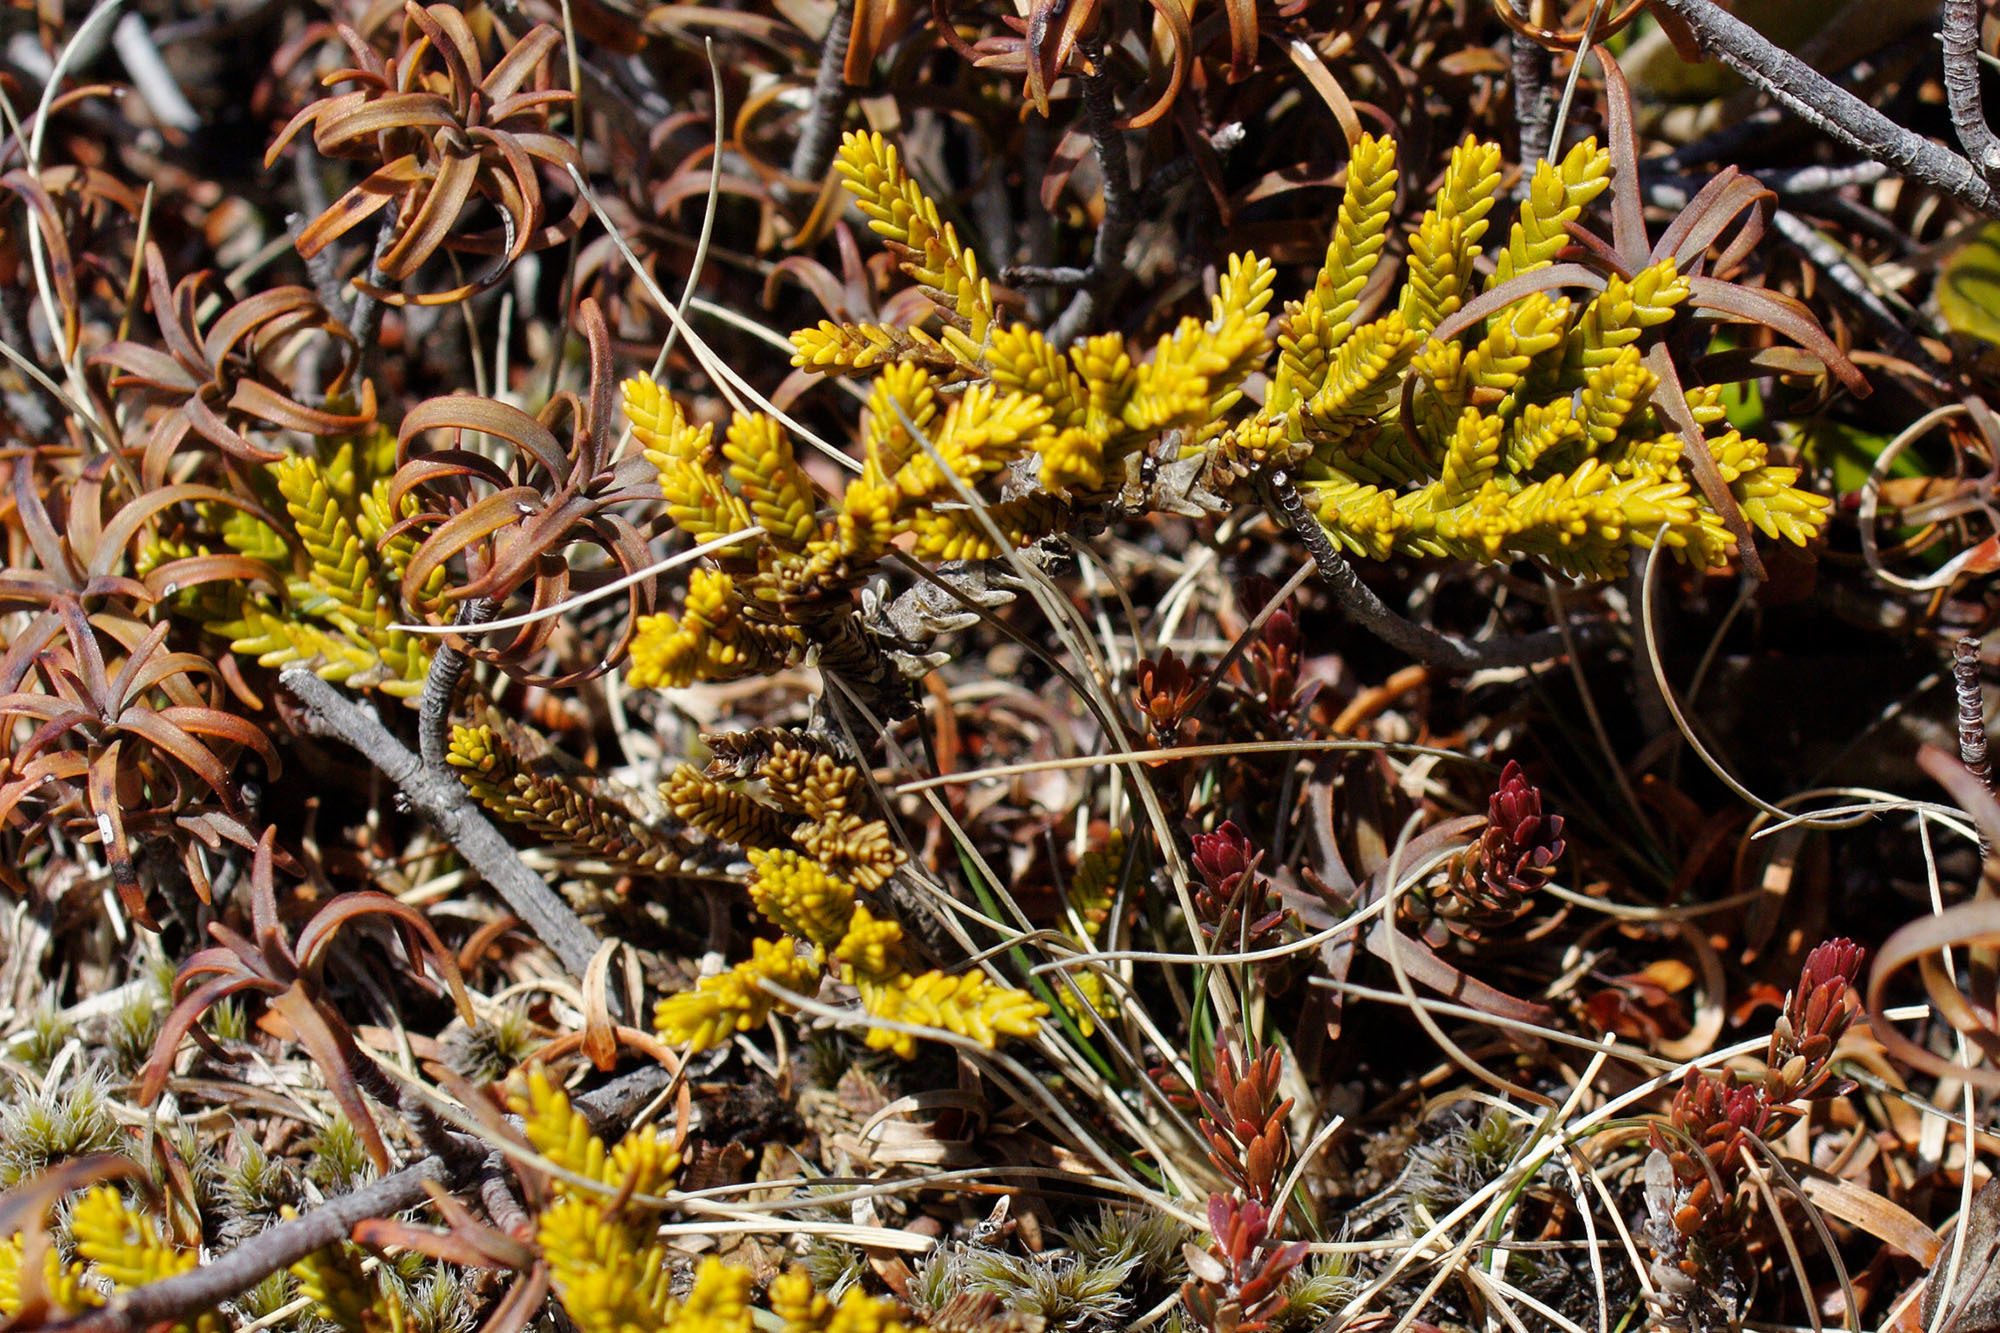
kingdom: Plantae
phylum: Tracheophyta
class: Magnoliopsida
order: Lamiales
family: Plantaginaceae
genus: Veronica
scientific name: Veronica tetragona
